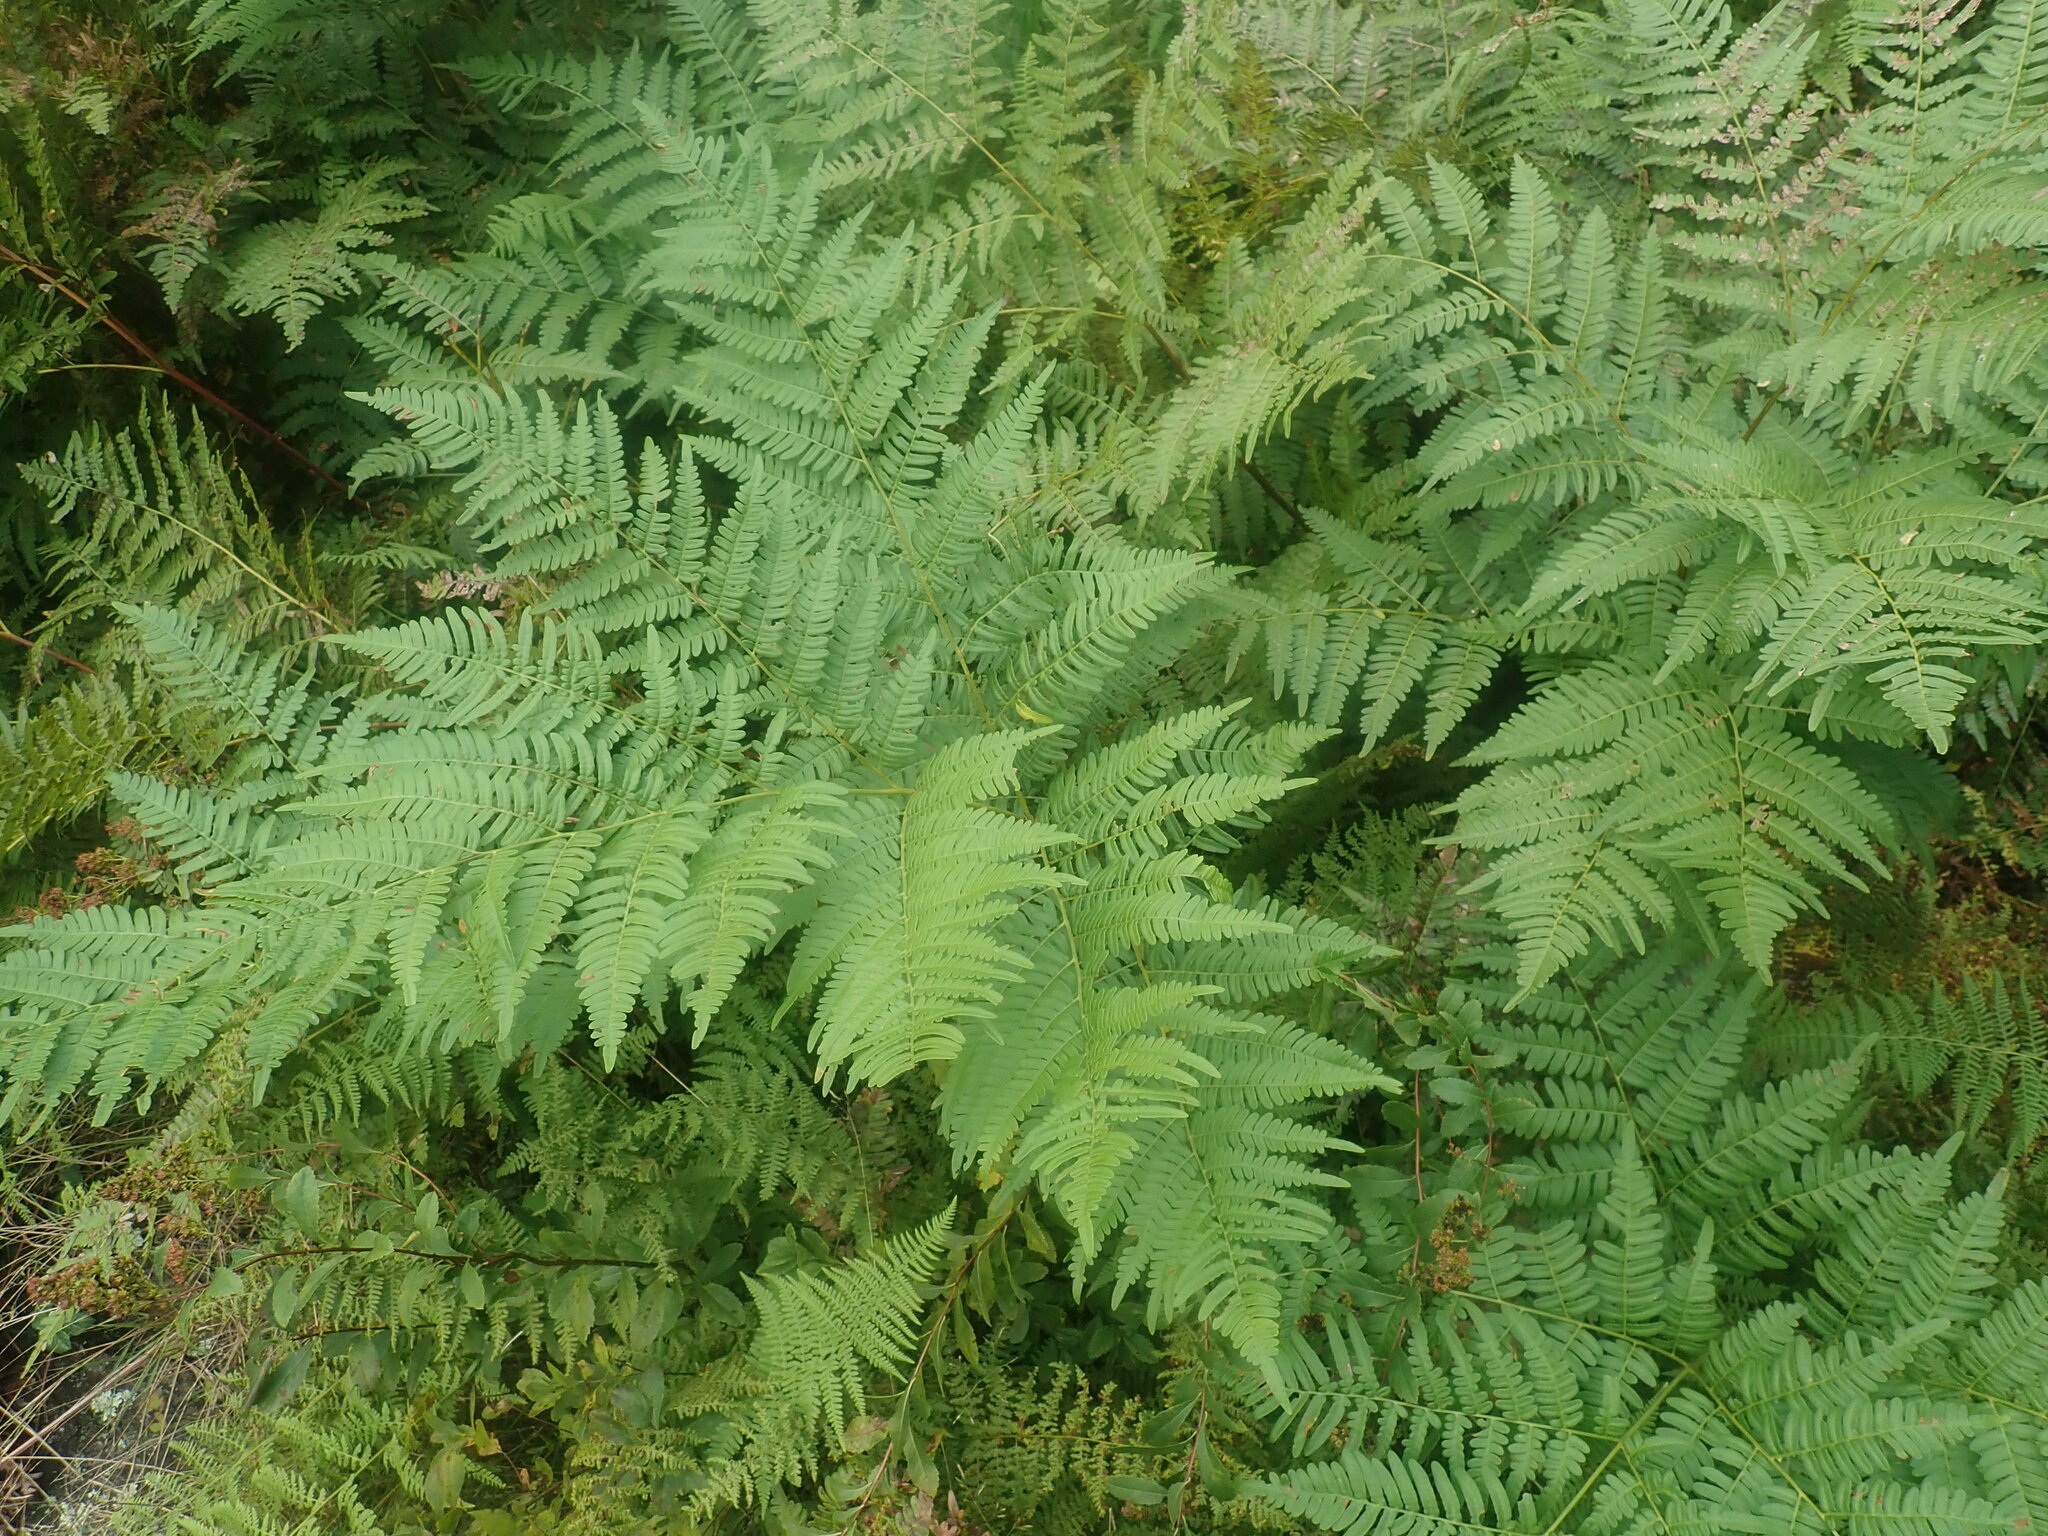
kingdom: Plantae
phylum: Tracheophyta
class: Polypodiopsida
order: Polypodiales
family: Dennstaedtiaceae
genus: Pteridium
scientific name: Pteridium aquilinum
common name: Bracken
